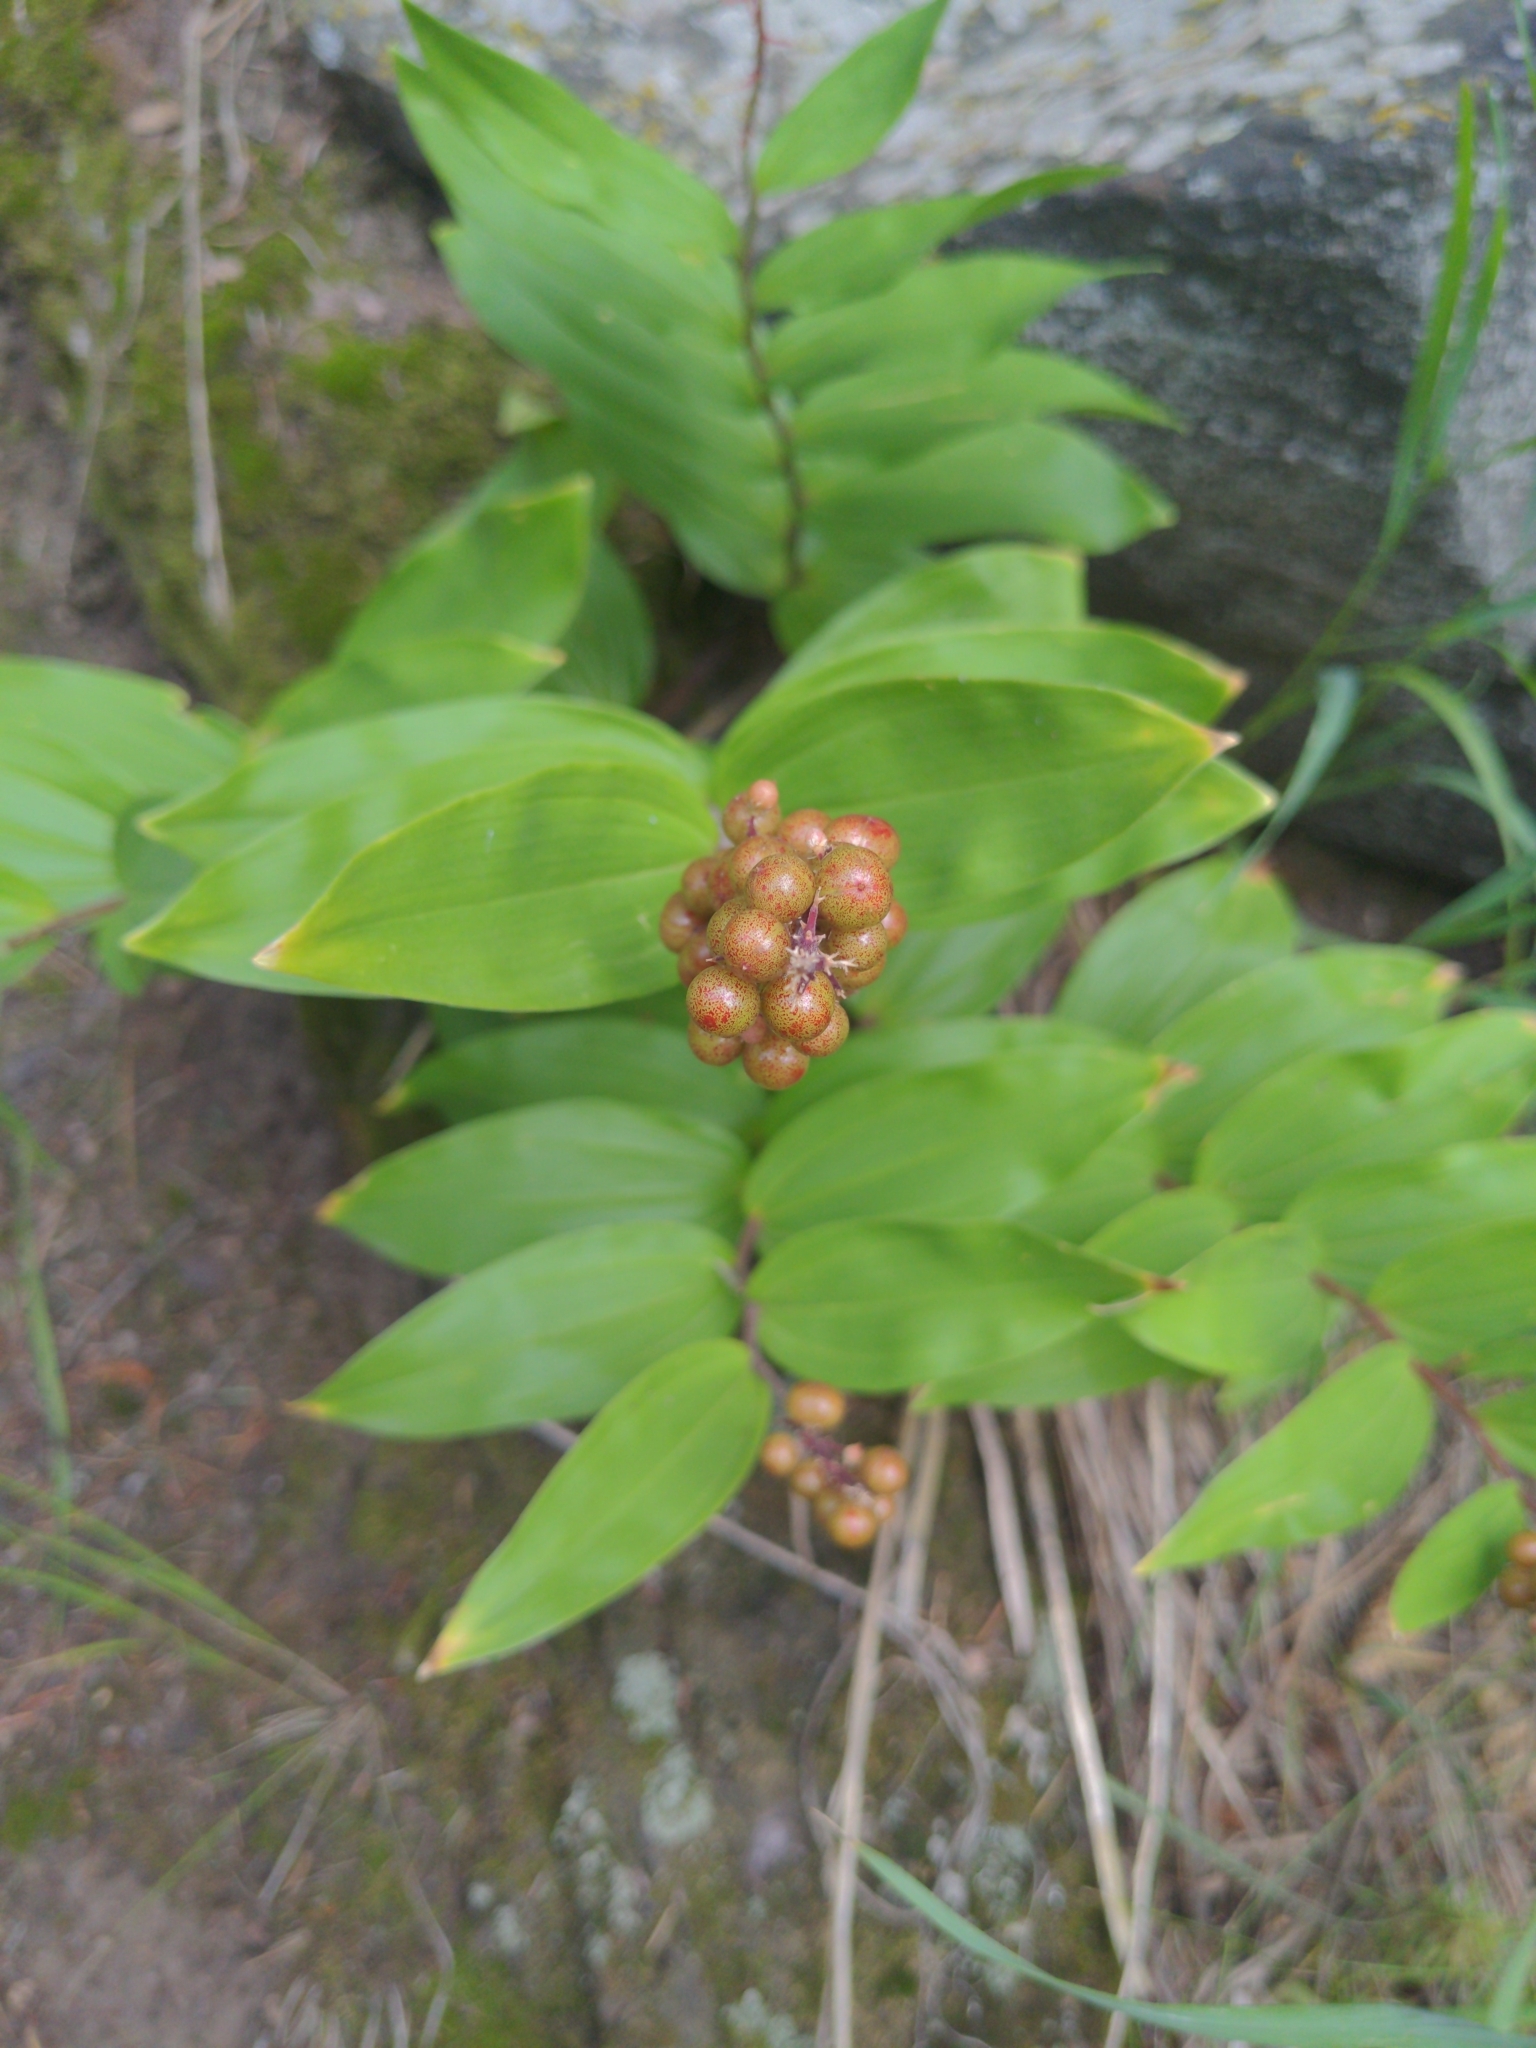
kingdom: Plantae
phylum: Tracheophyta
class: Liliopsida
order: Asparagales
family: Asparagaceae
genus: Maianthemum
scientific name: Maianthemum racemosum
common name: False spikenard
